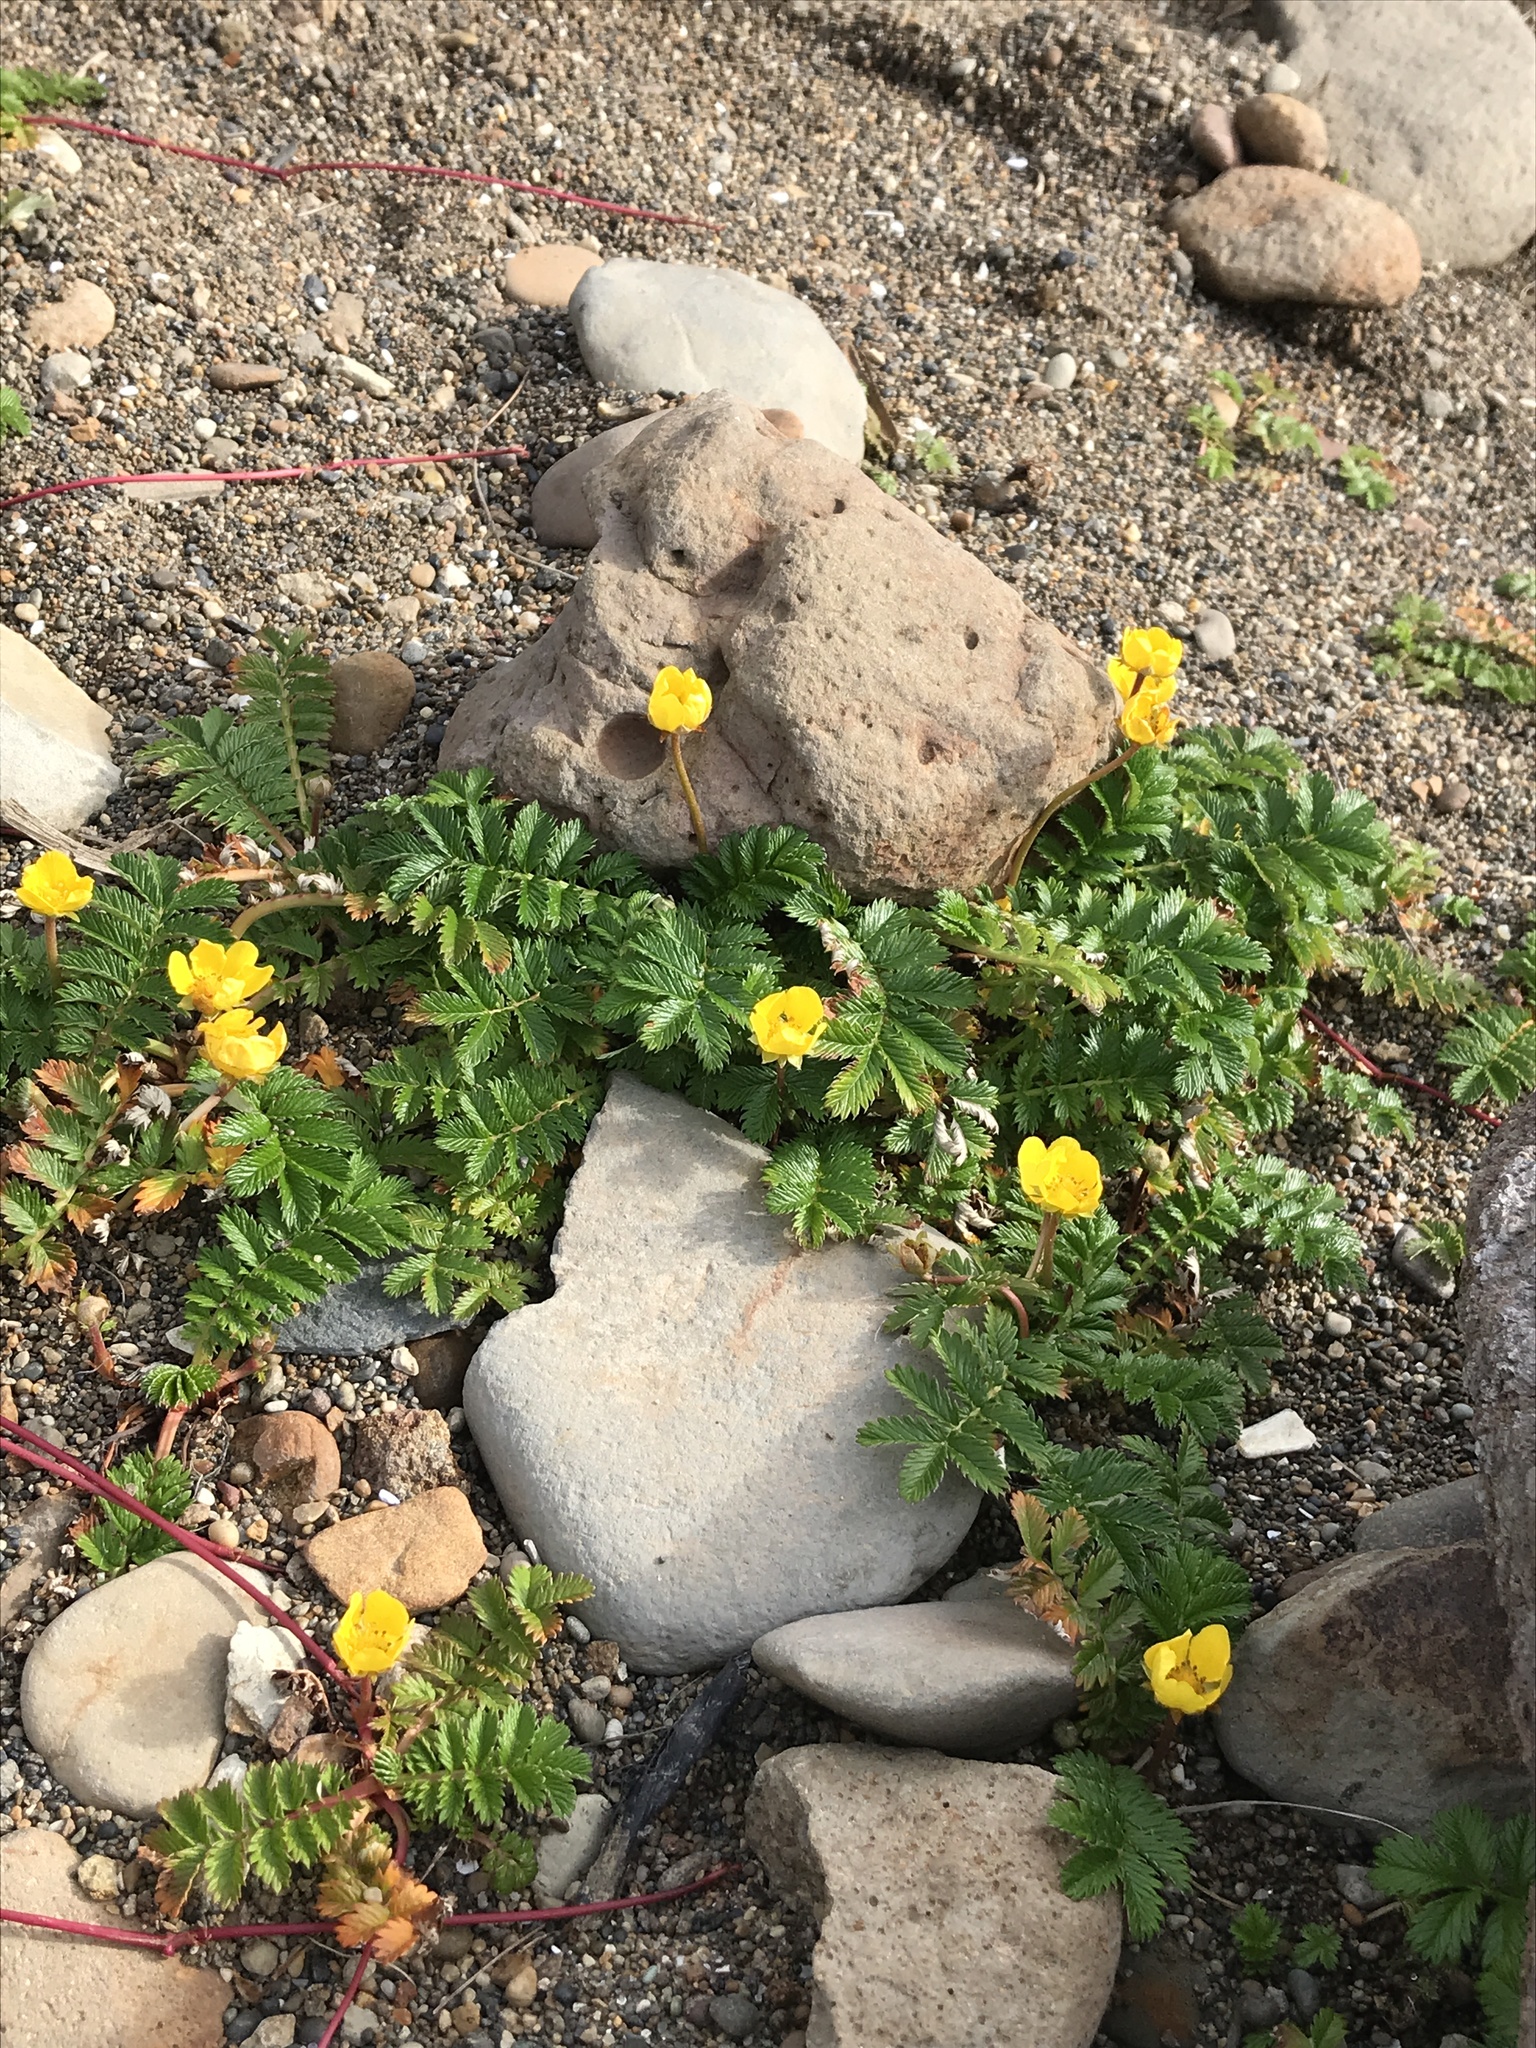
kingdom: Plantae
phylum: Tracheophyta
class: Magnoliopsida
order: Rosales
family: Rosaceae
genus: Argentina
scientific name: Argentina anserina
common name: Common silverweed
